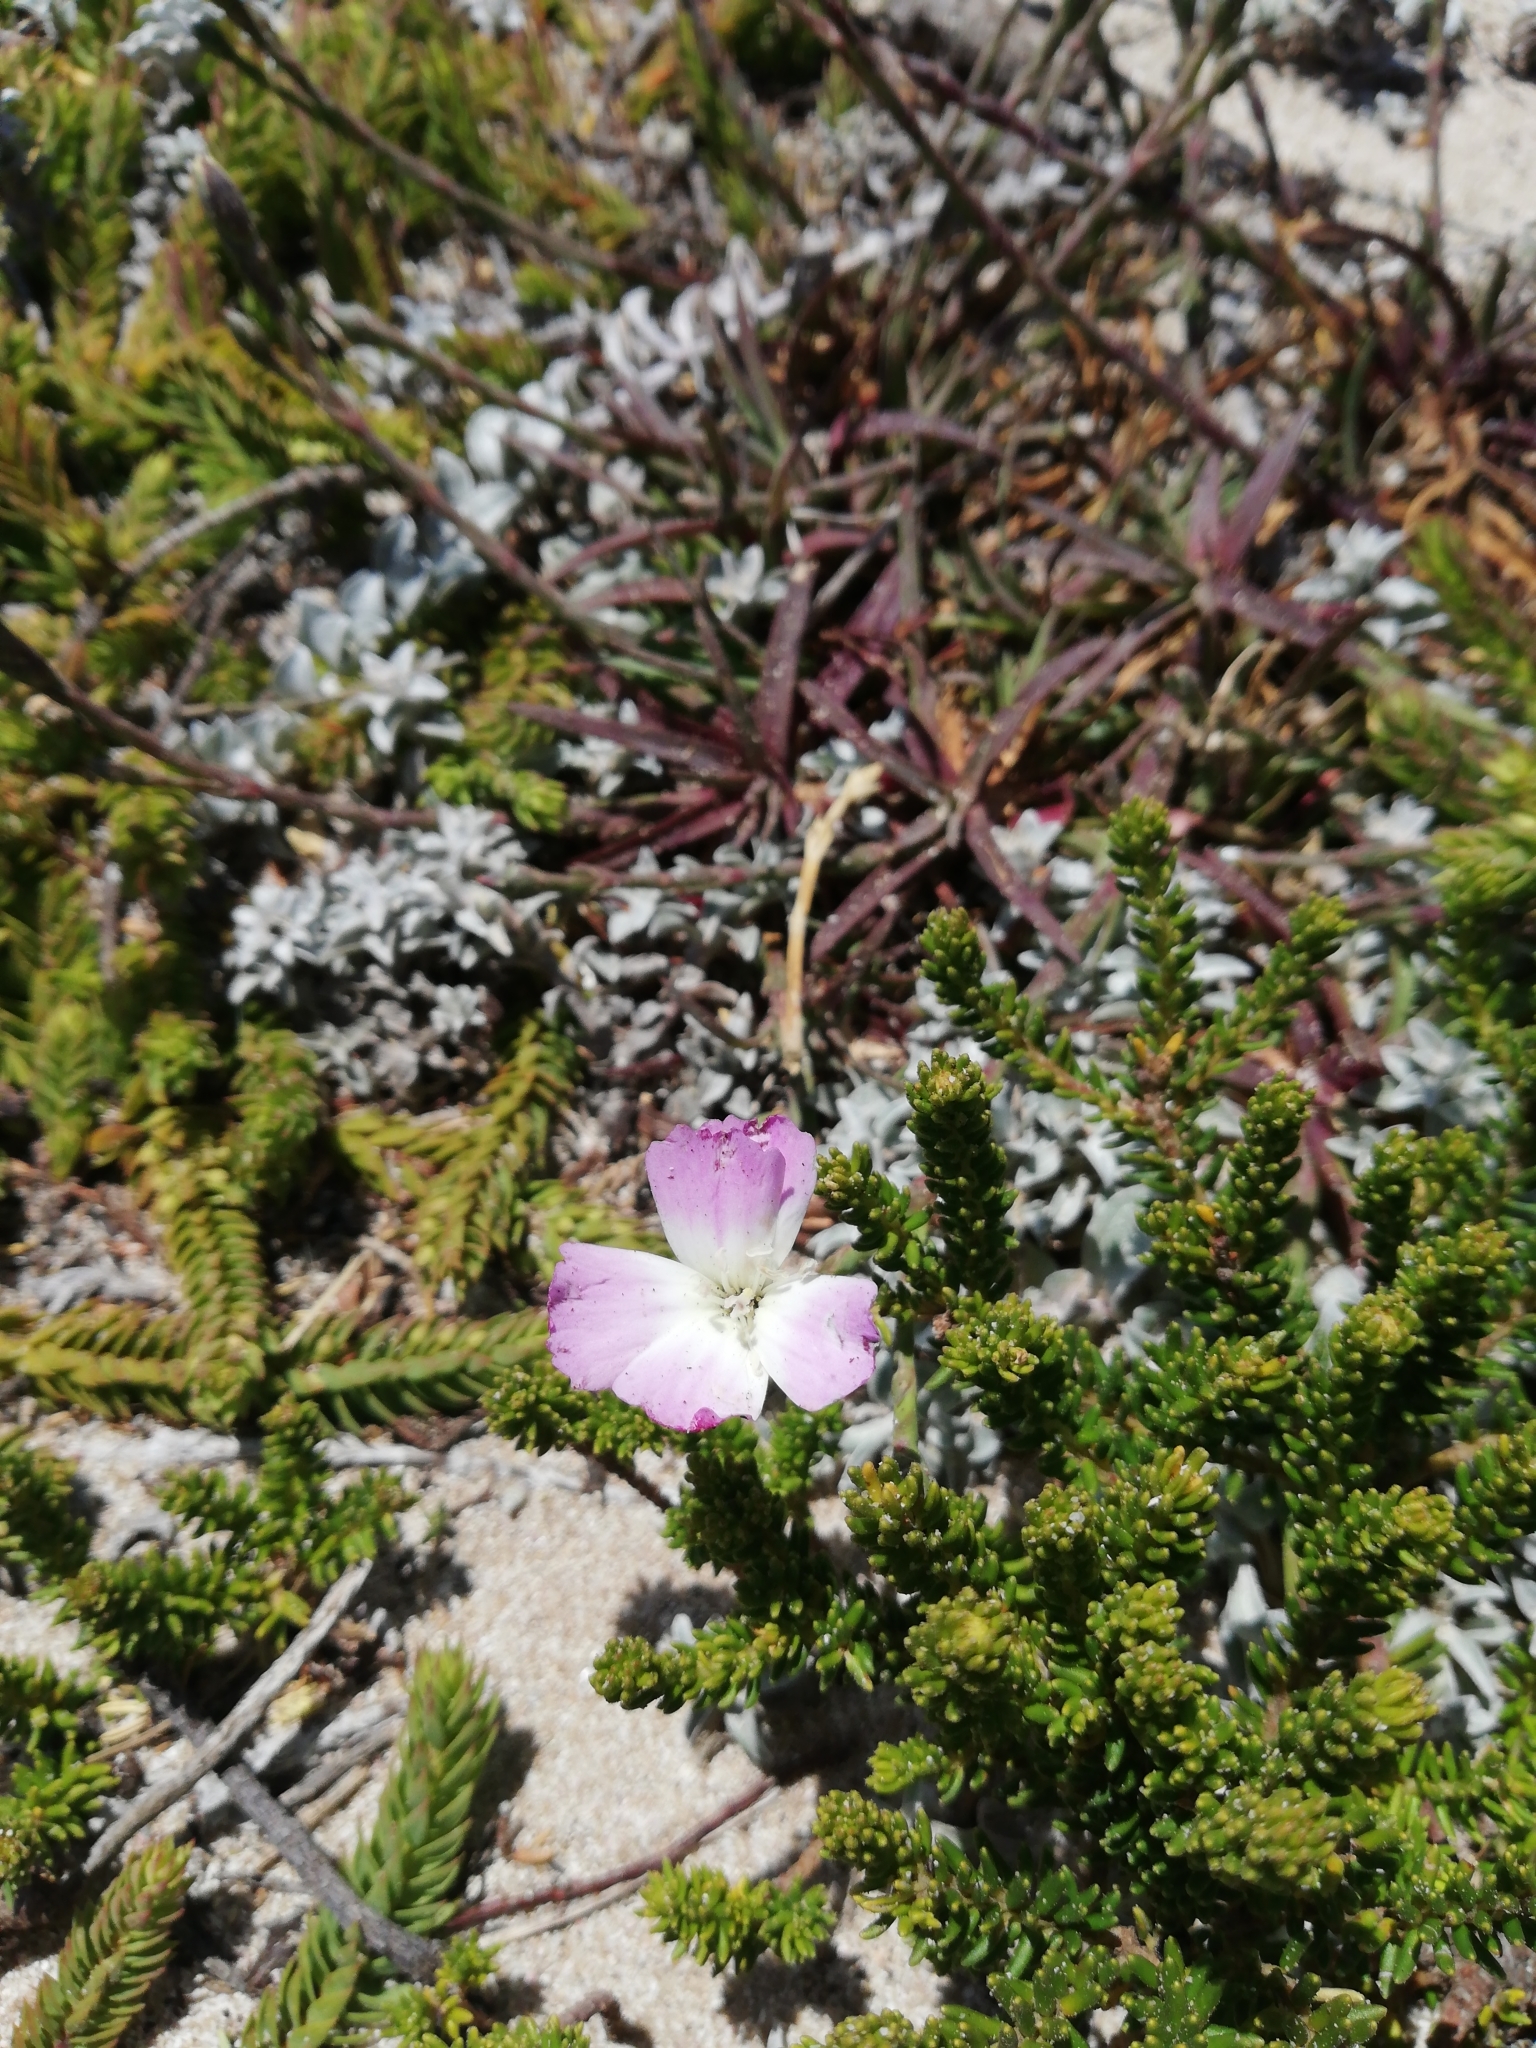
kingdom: Plantae
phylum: Tracheophyta
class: Magnoliopsida
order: Caryophyllales
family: Caryophyllaceae
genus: Dianthus
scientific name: Dianthus albens
